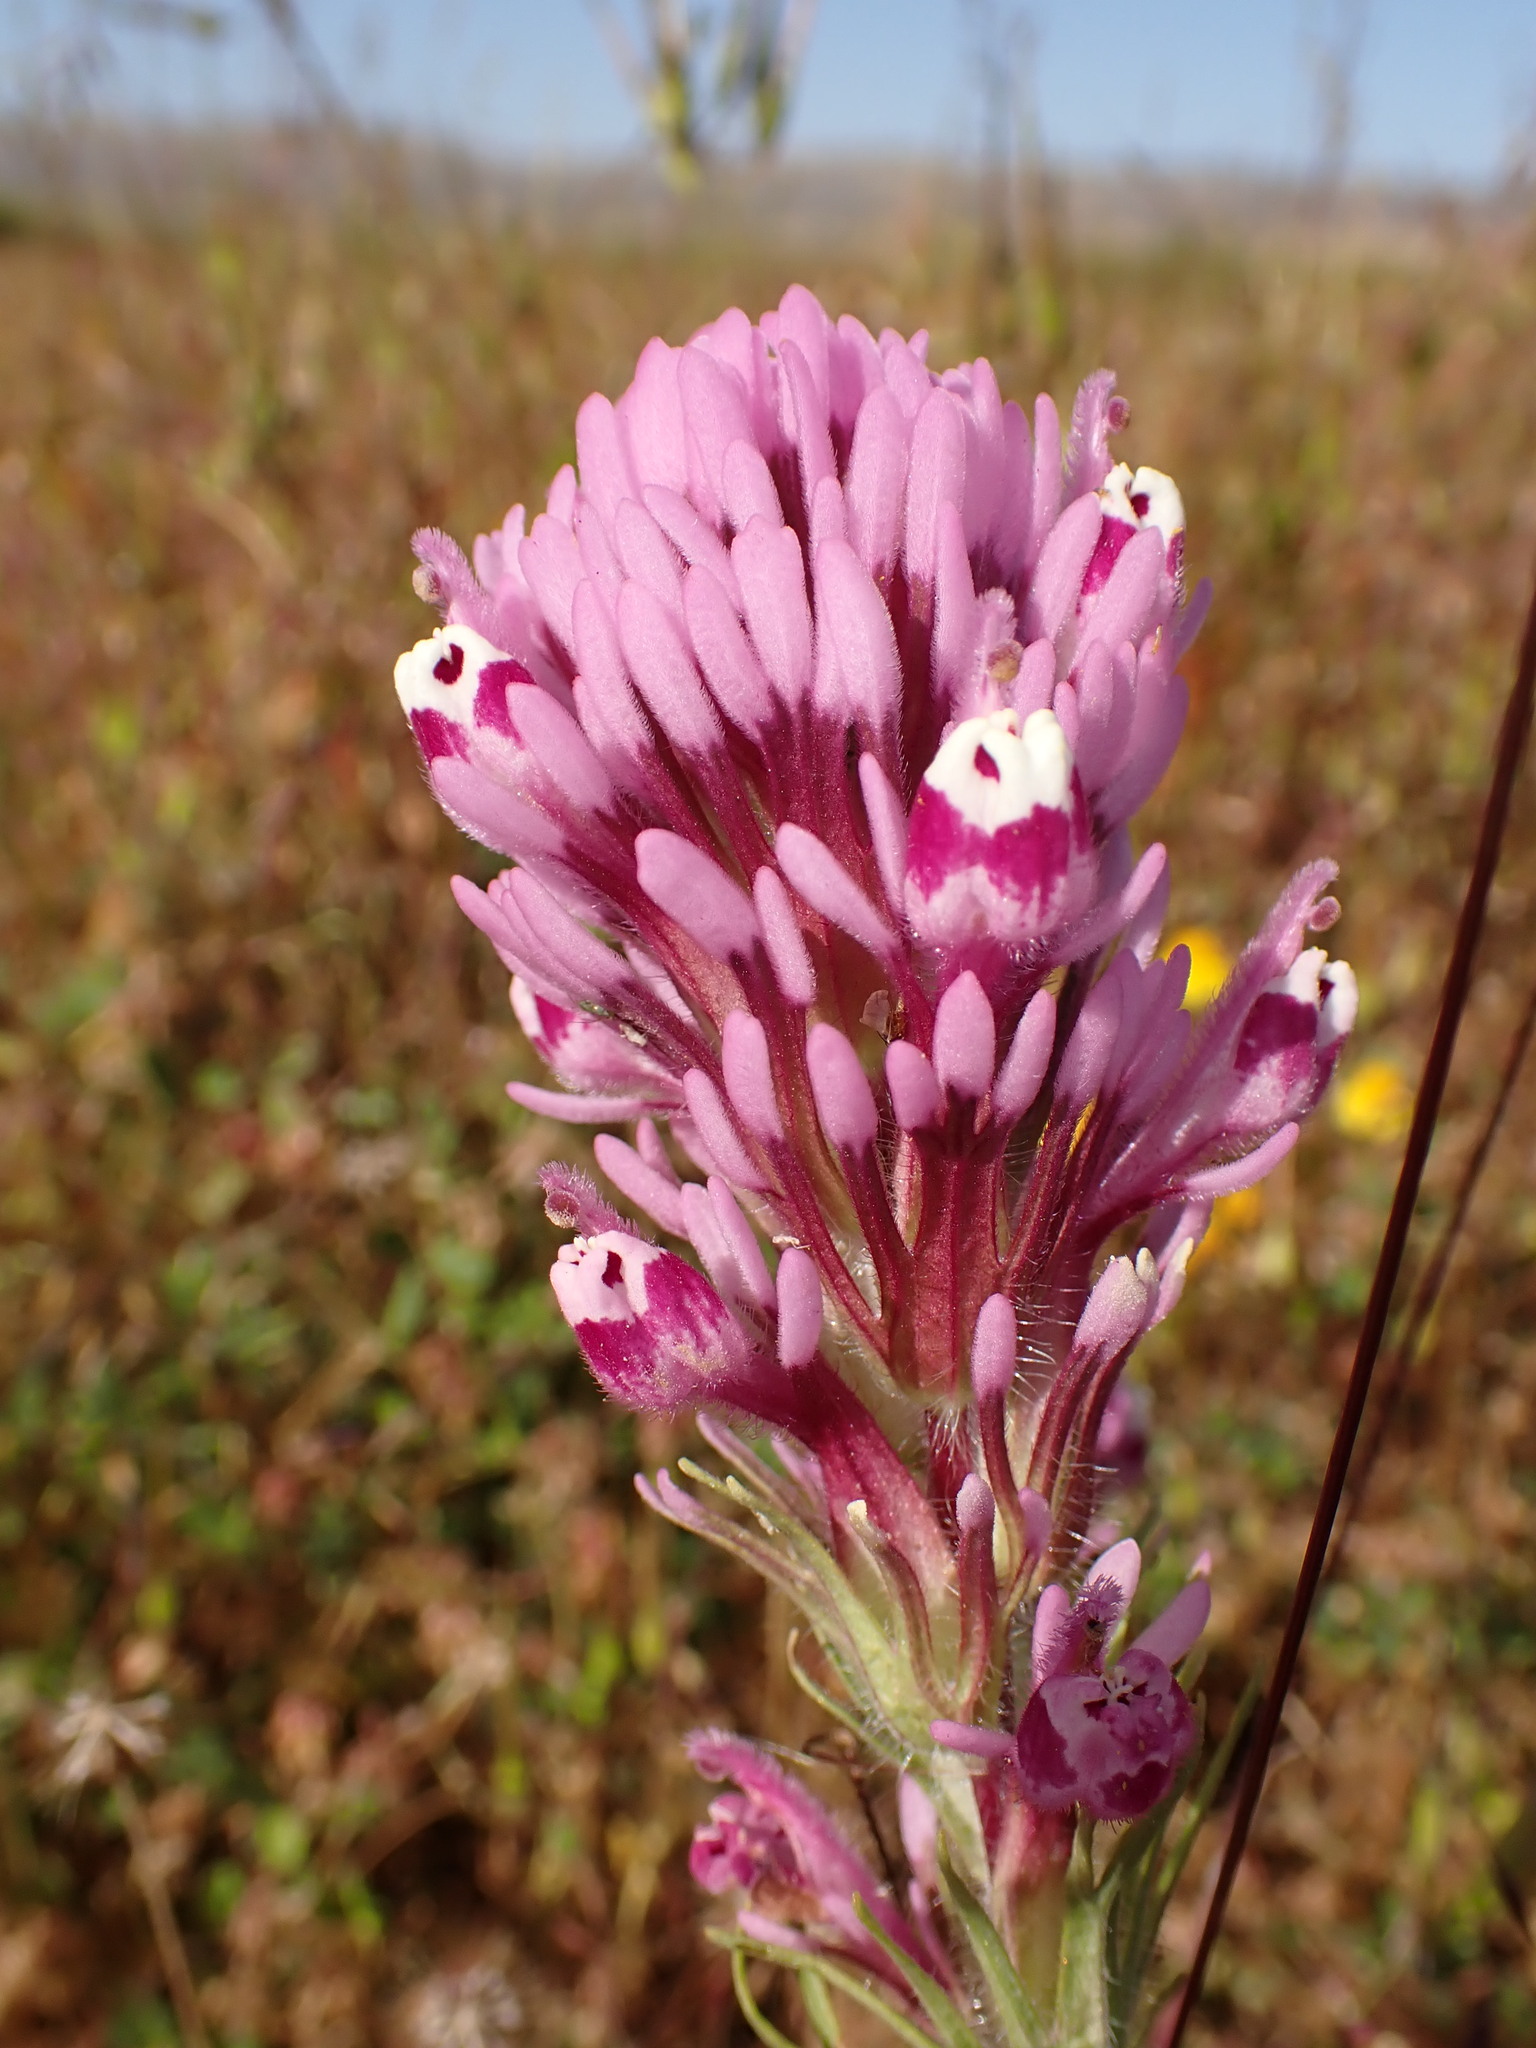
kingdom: Plantae
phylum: Tracheophyta
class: Magnoliopsida
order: Lamiales
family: Orobanchaceae
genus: Castilleja
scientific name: Castilleja exserta
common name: Purple owl-clover
